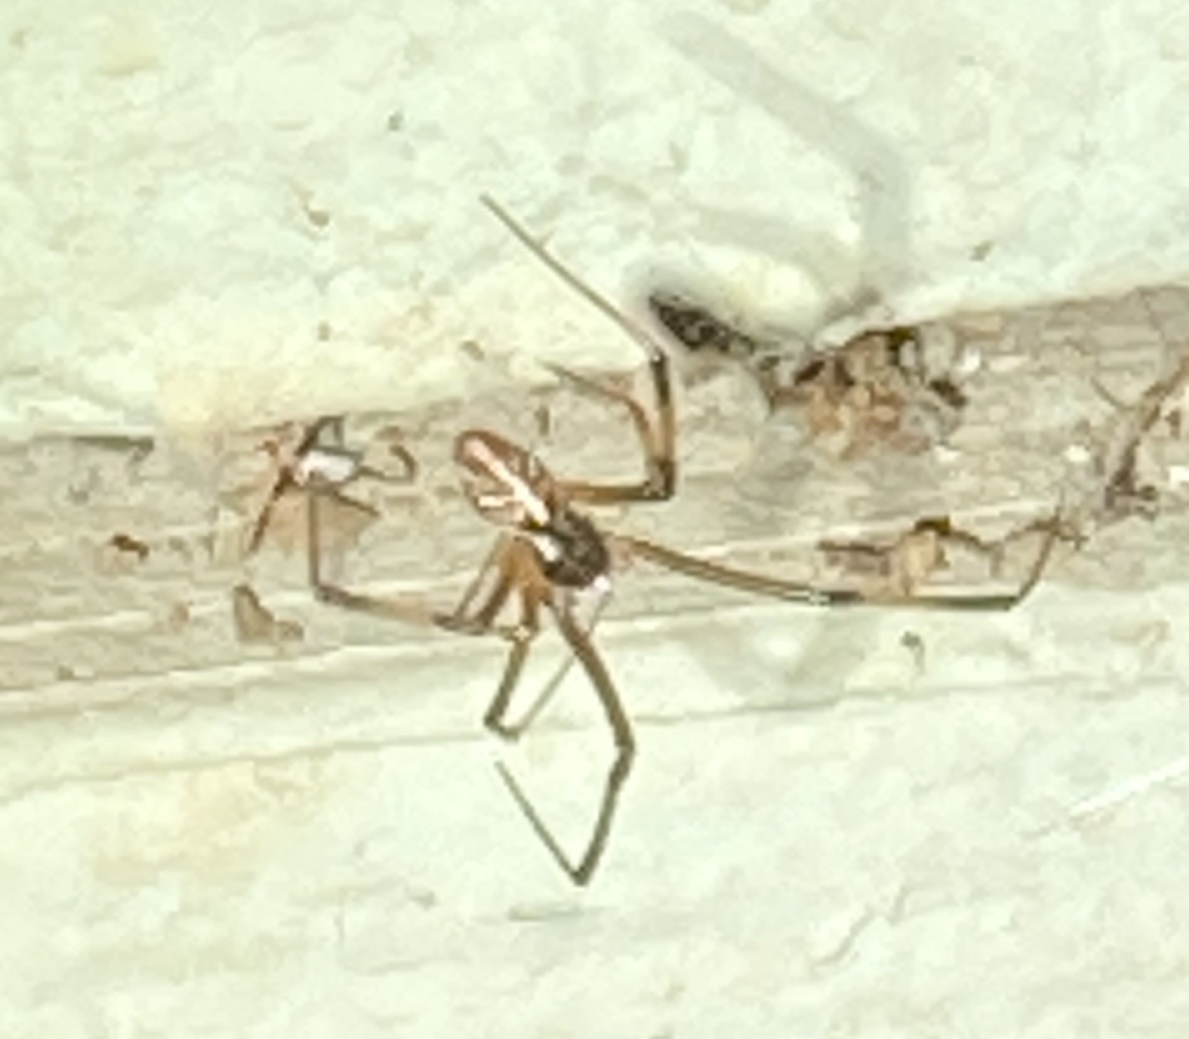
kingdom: Animalia
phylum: Arthropoda
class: Arachnida
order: Araneae
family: Theridiidae
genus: Latrodectus
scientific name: Latrodectus hesperus
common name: Western black widow
